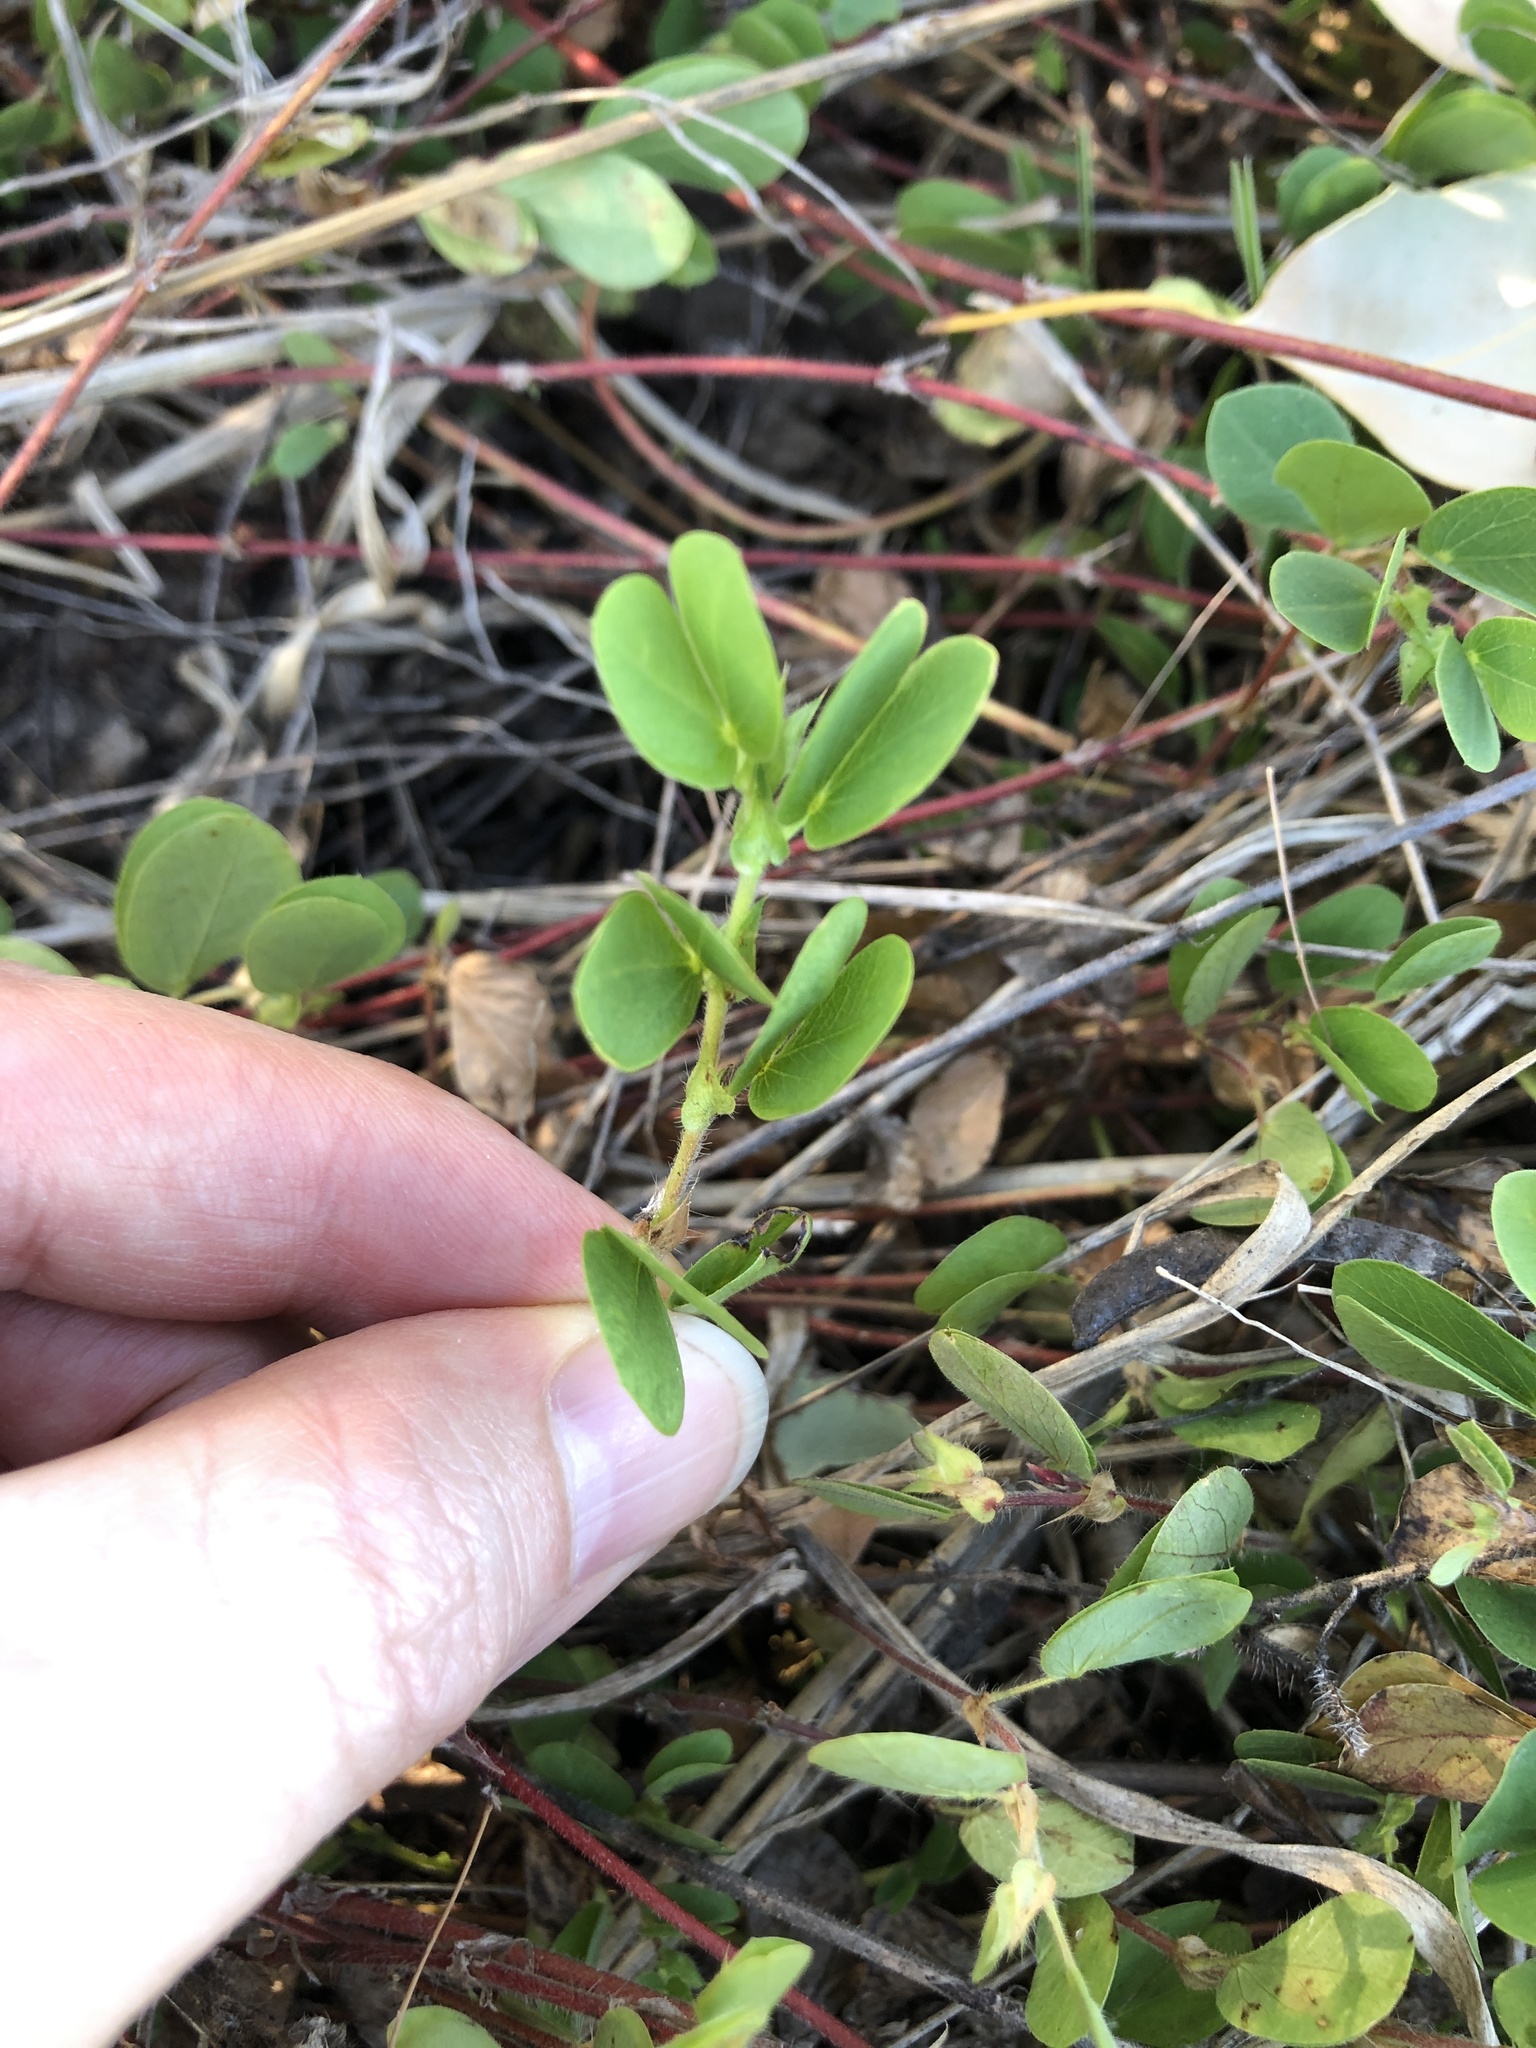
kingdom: Plantae
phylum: Tracheophyta
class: Magnoliopsida
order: Fabales
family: Fabaceae
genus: Chamaecrista
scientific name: Chamaecrista rotundifolia
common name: Round-leaf cassia
